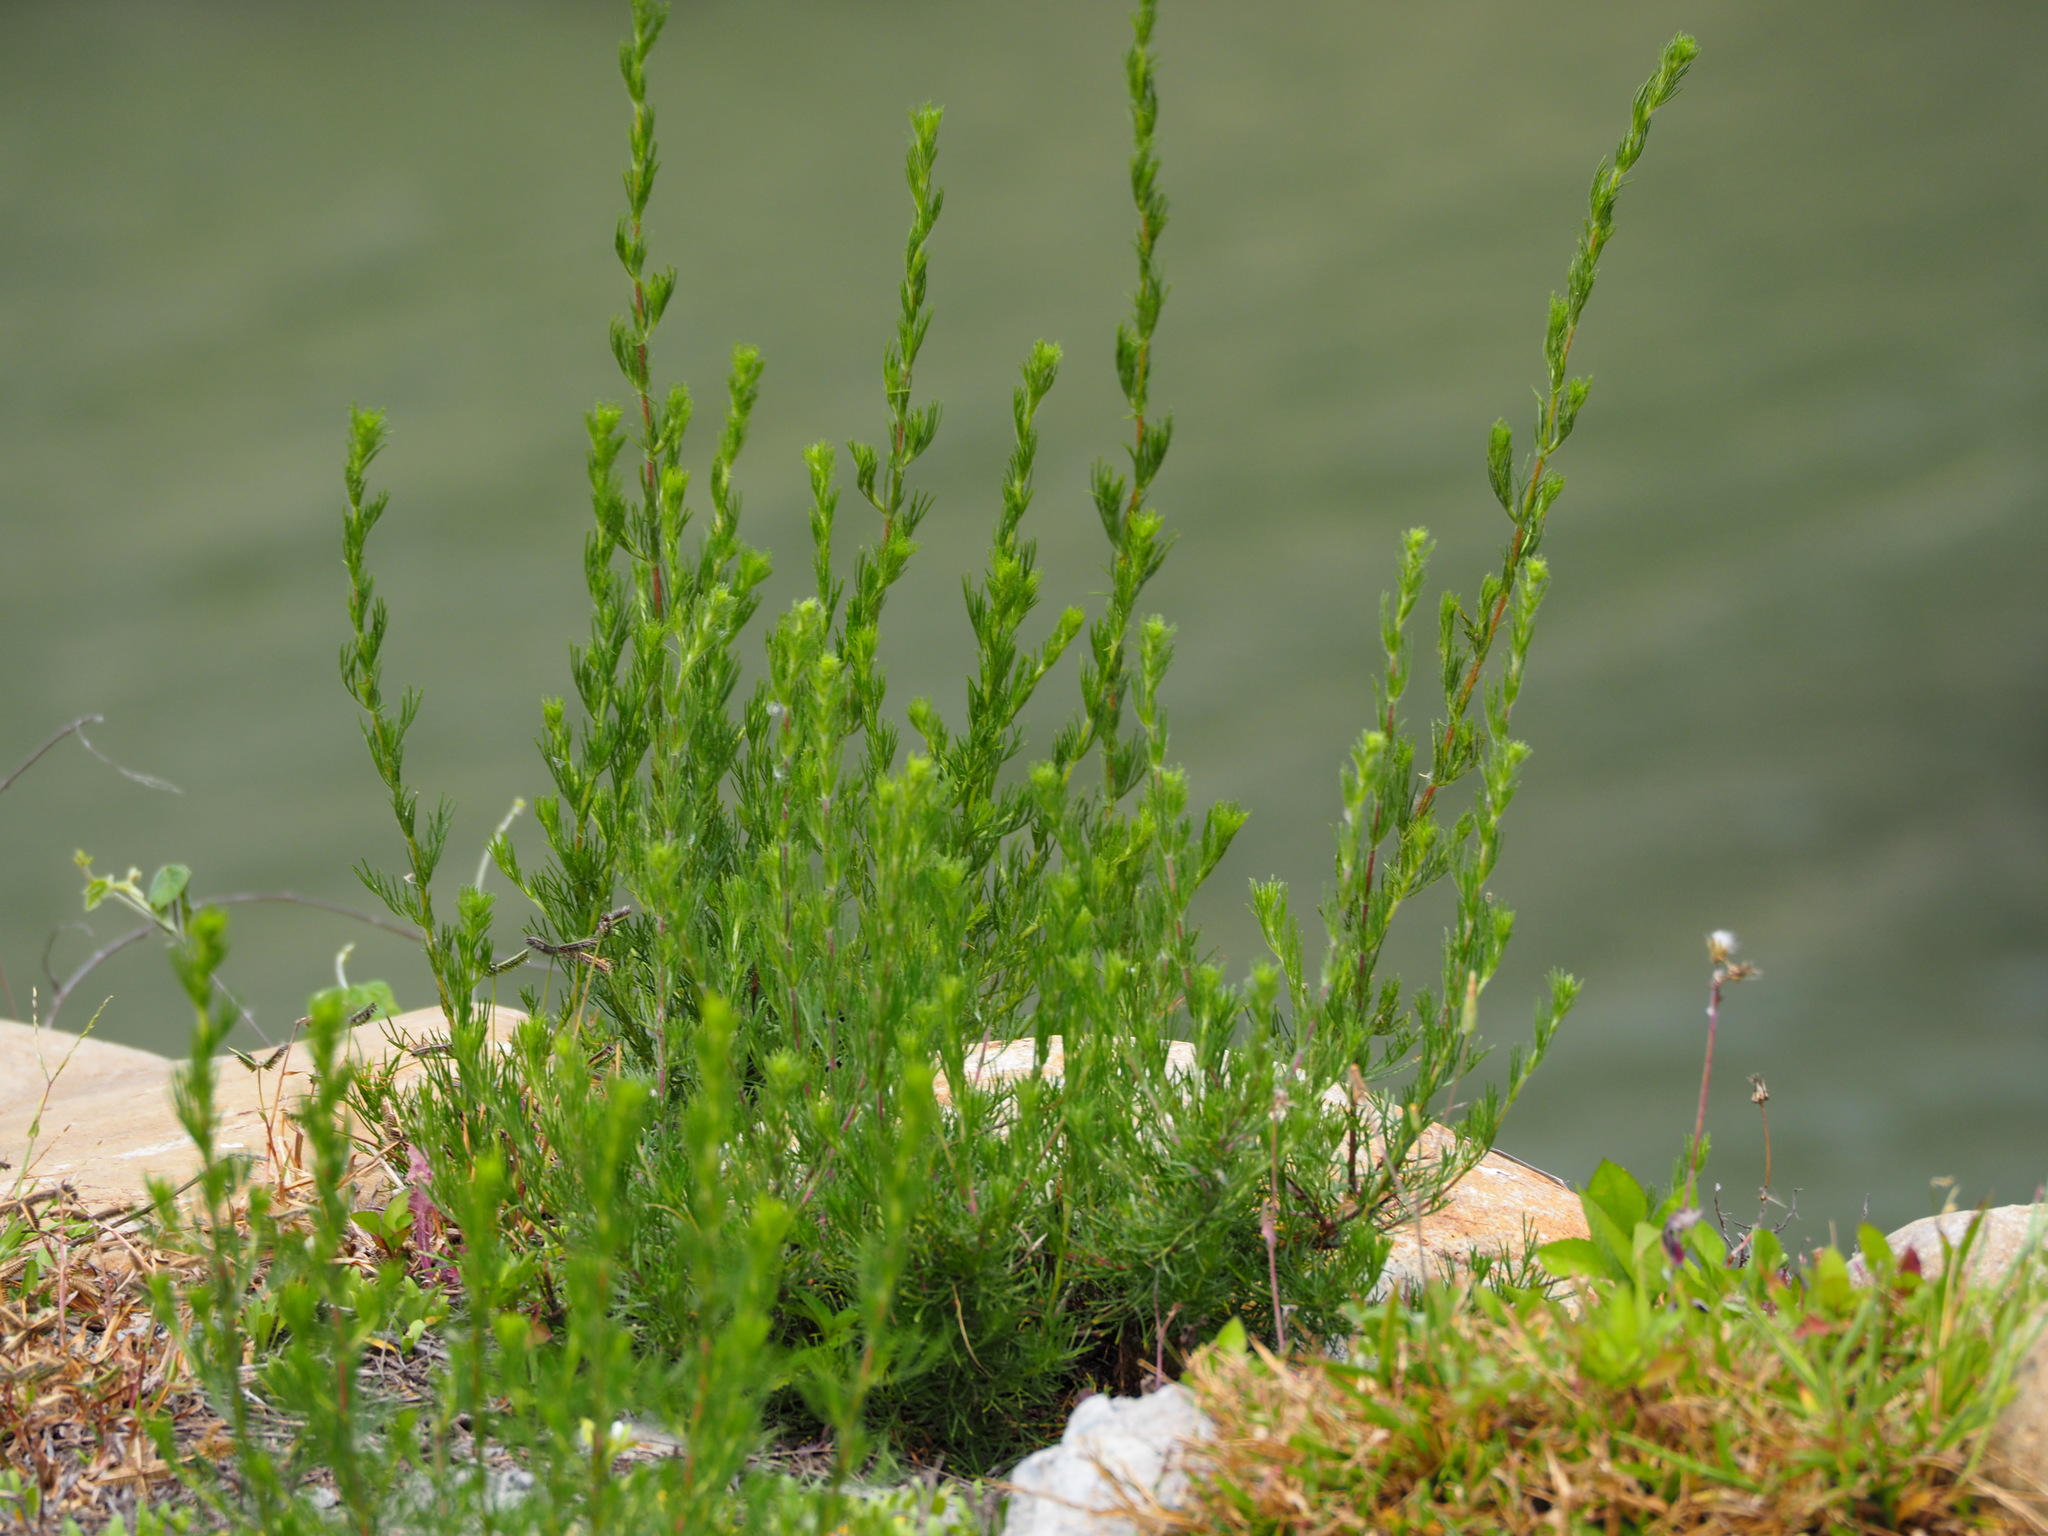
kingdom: Plantae
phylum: Tracheophyta
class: Magnoliopsida
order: Asterales
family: Asteraceae
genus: Artemisia
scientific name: Artemisia capillaris
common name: Yin-chen wormwood
